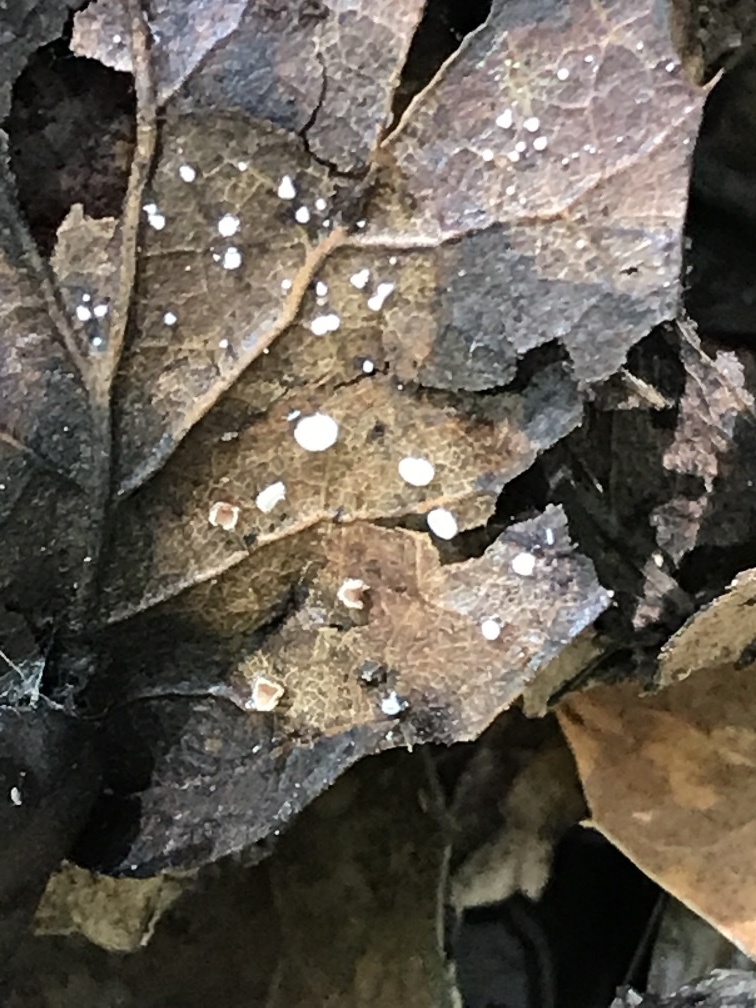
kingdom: Fungi
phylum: Ascomycota
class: Leotiomycetes
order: Helotiales
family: Lachnaceae
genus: Lachnum
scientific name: Lachnum virgineum
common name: Snowy disco
